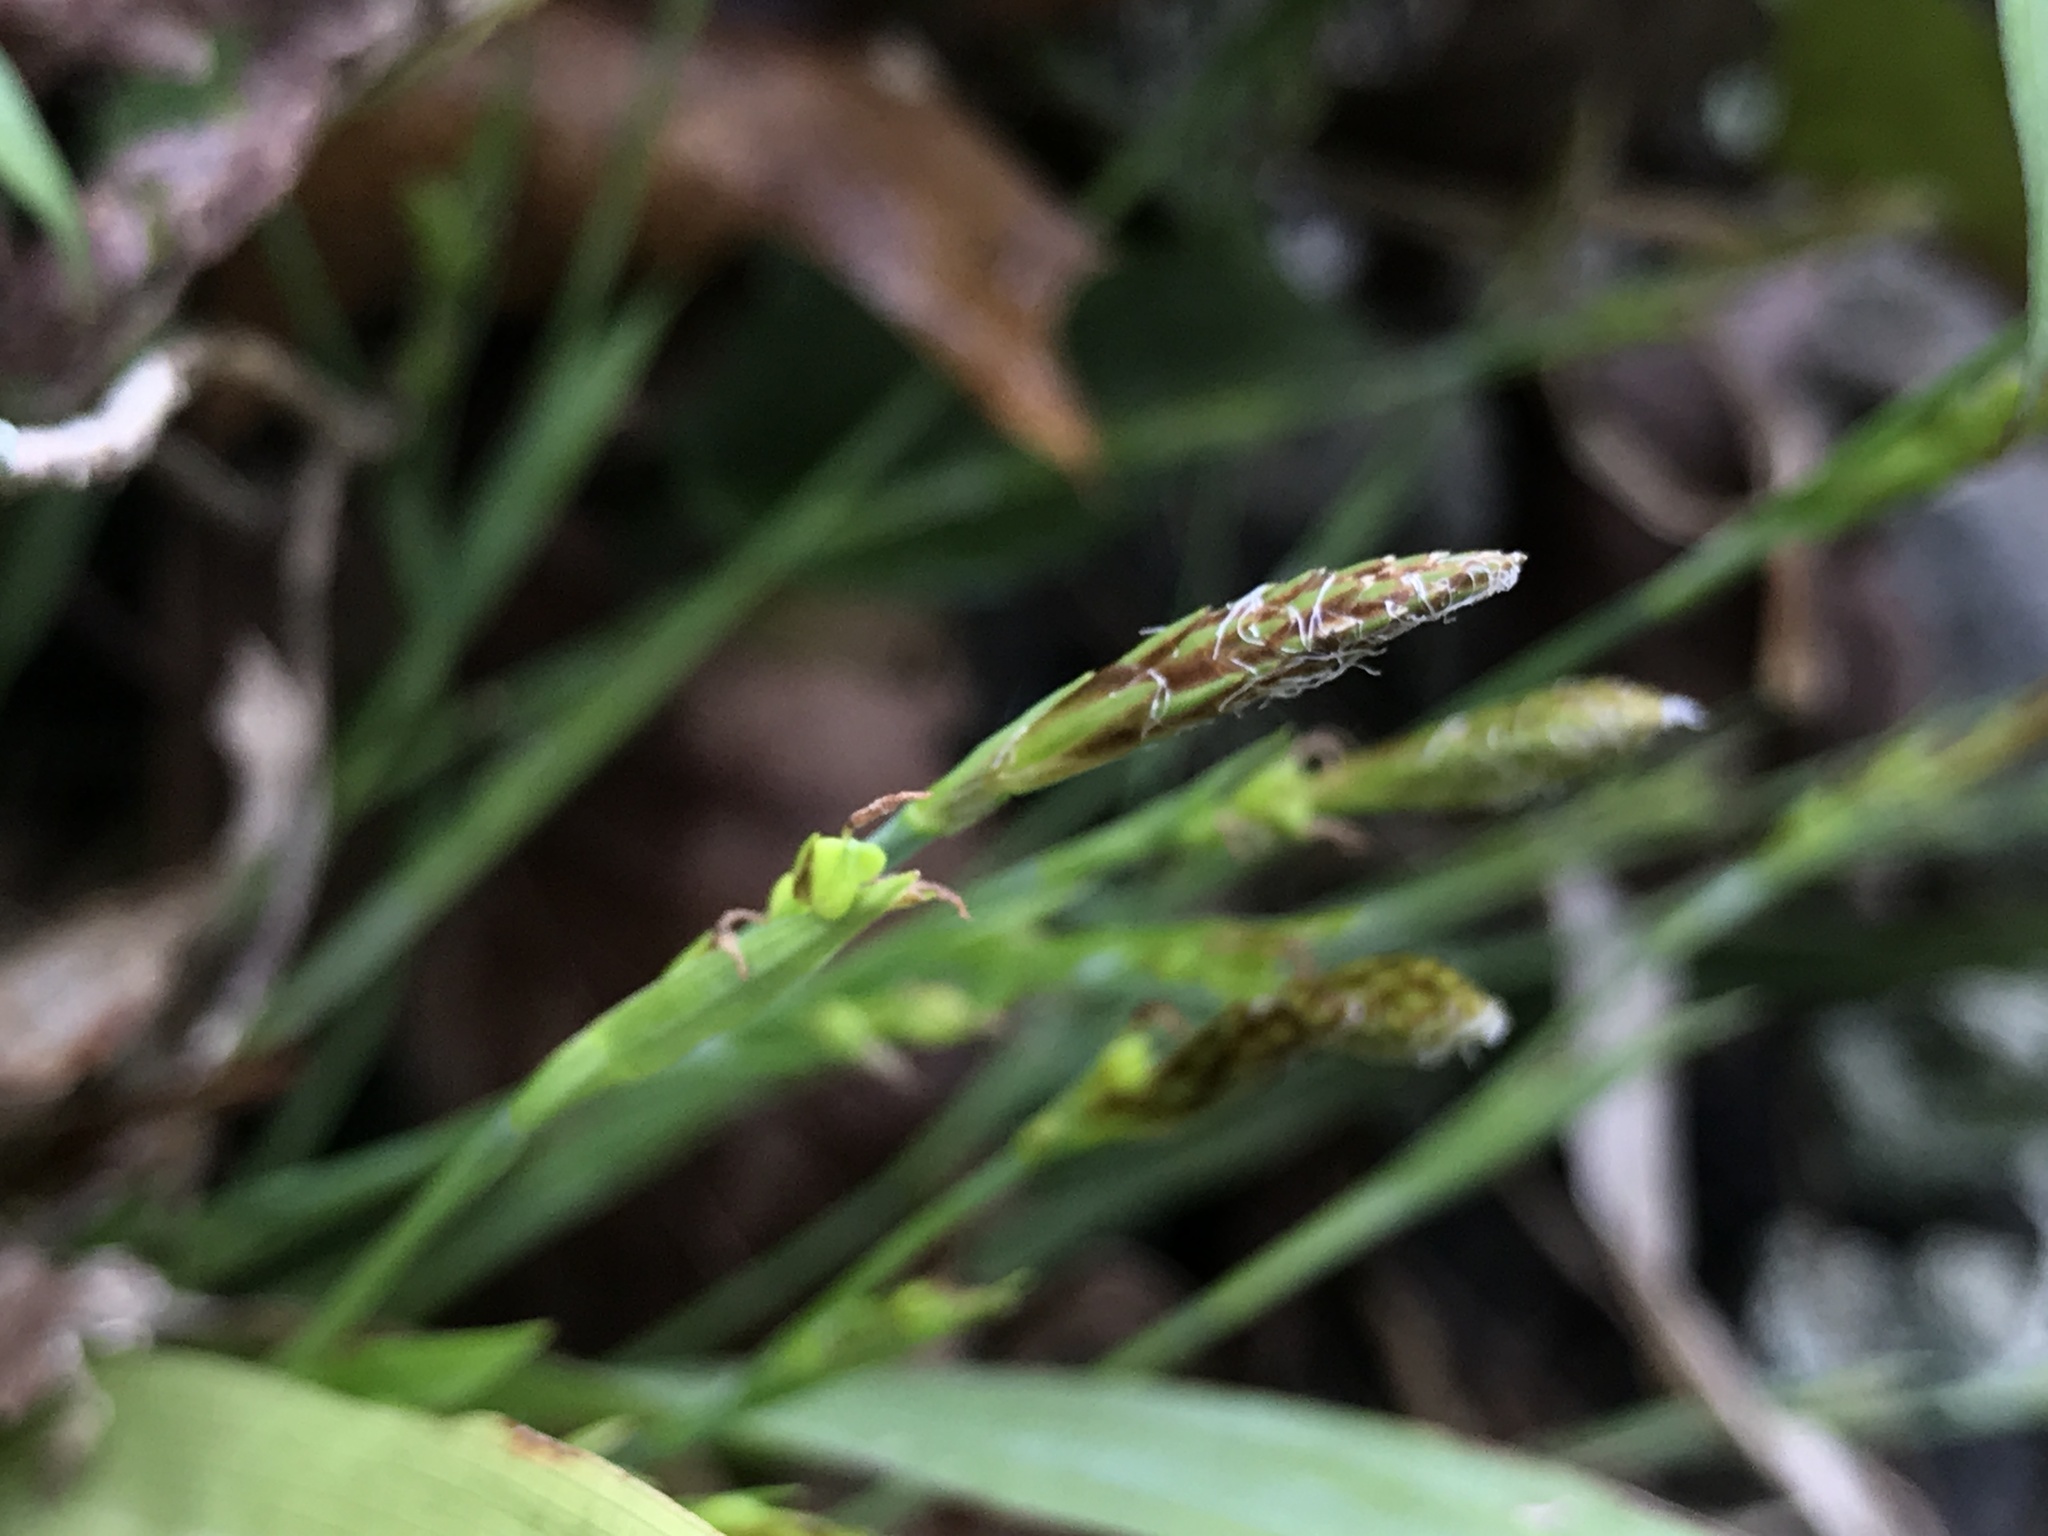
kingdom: Plantae
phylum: Tracheophyta
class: Liliopsida
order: Poales
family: Cyperaceae
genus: Carex
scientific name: Carex platyphylla
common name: Broad-leaved sedge
